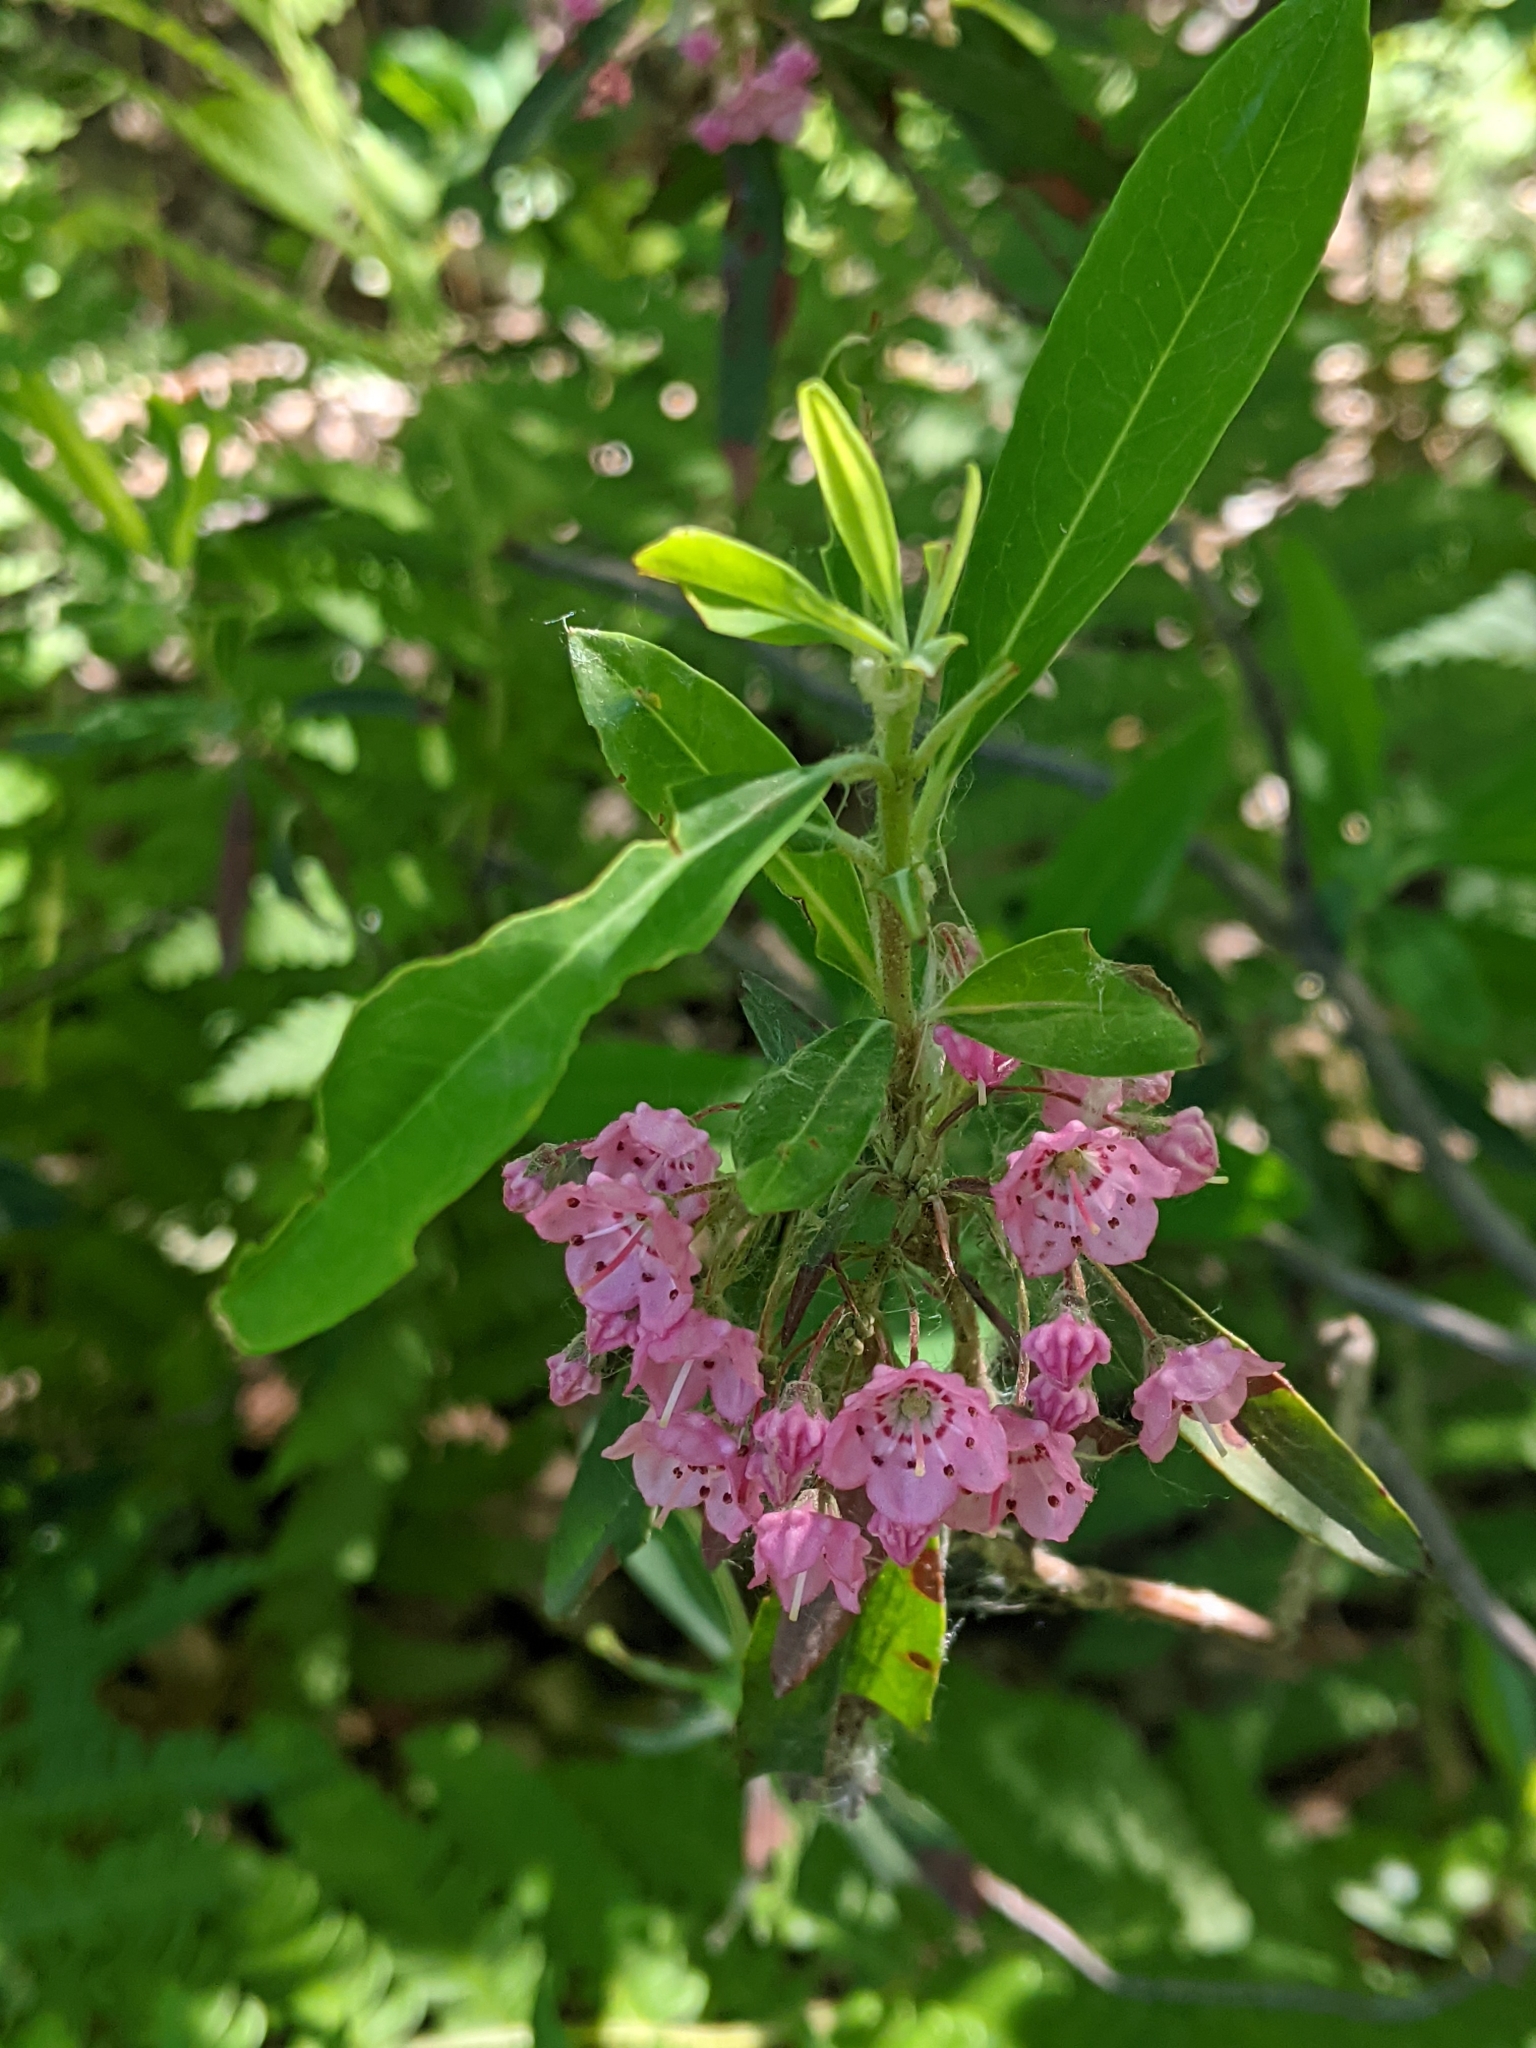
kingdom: Plantae
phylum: Tracheophyta
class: Magnoliopsida
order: Ericales
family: Ericaceae
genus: Kalmia
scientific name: Kalmia angustifolia
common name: Sheep-laurel
